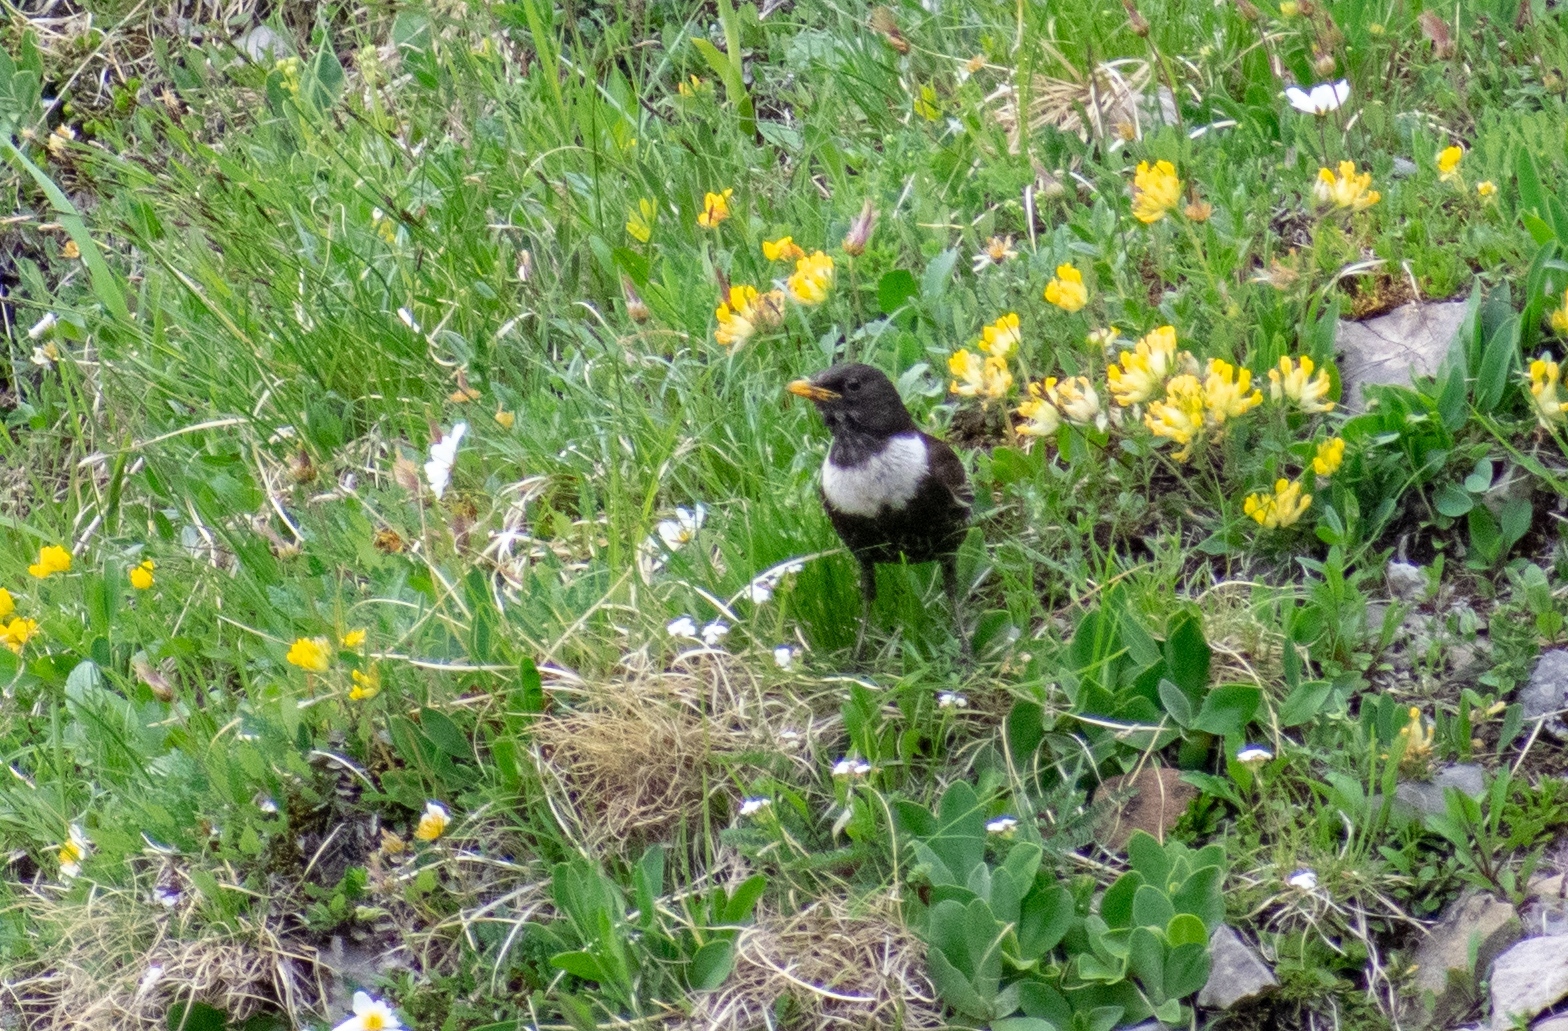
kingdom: Animalia
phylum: Chordata
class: Aves
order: Passeriformes
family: Turdidae
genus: Turdus
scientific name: Turdus torquatus
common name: Ring ouzel
